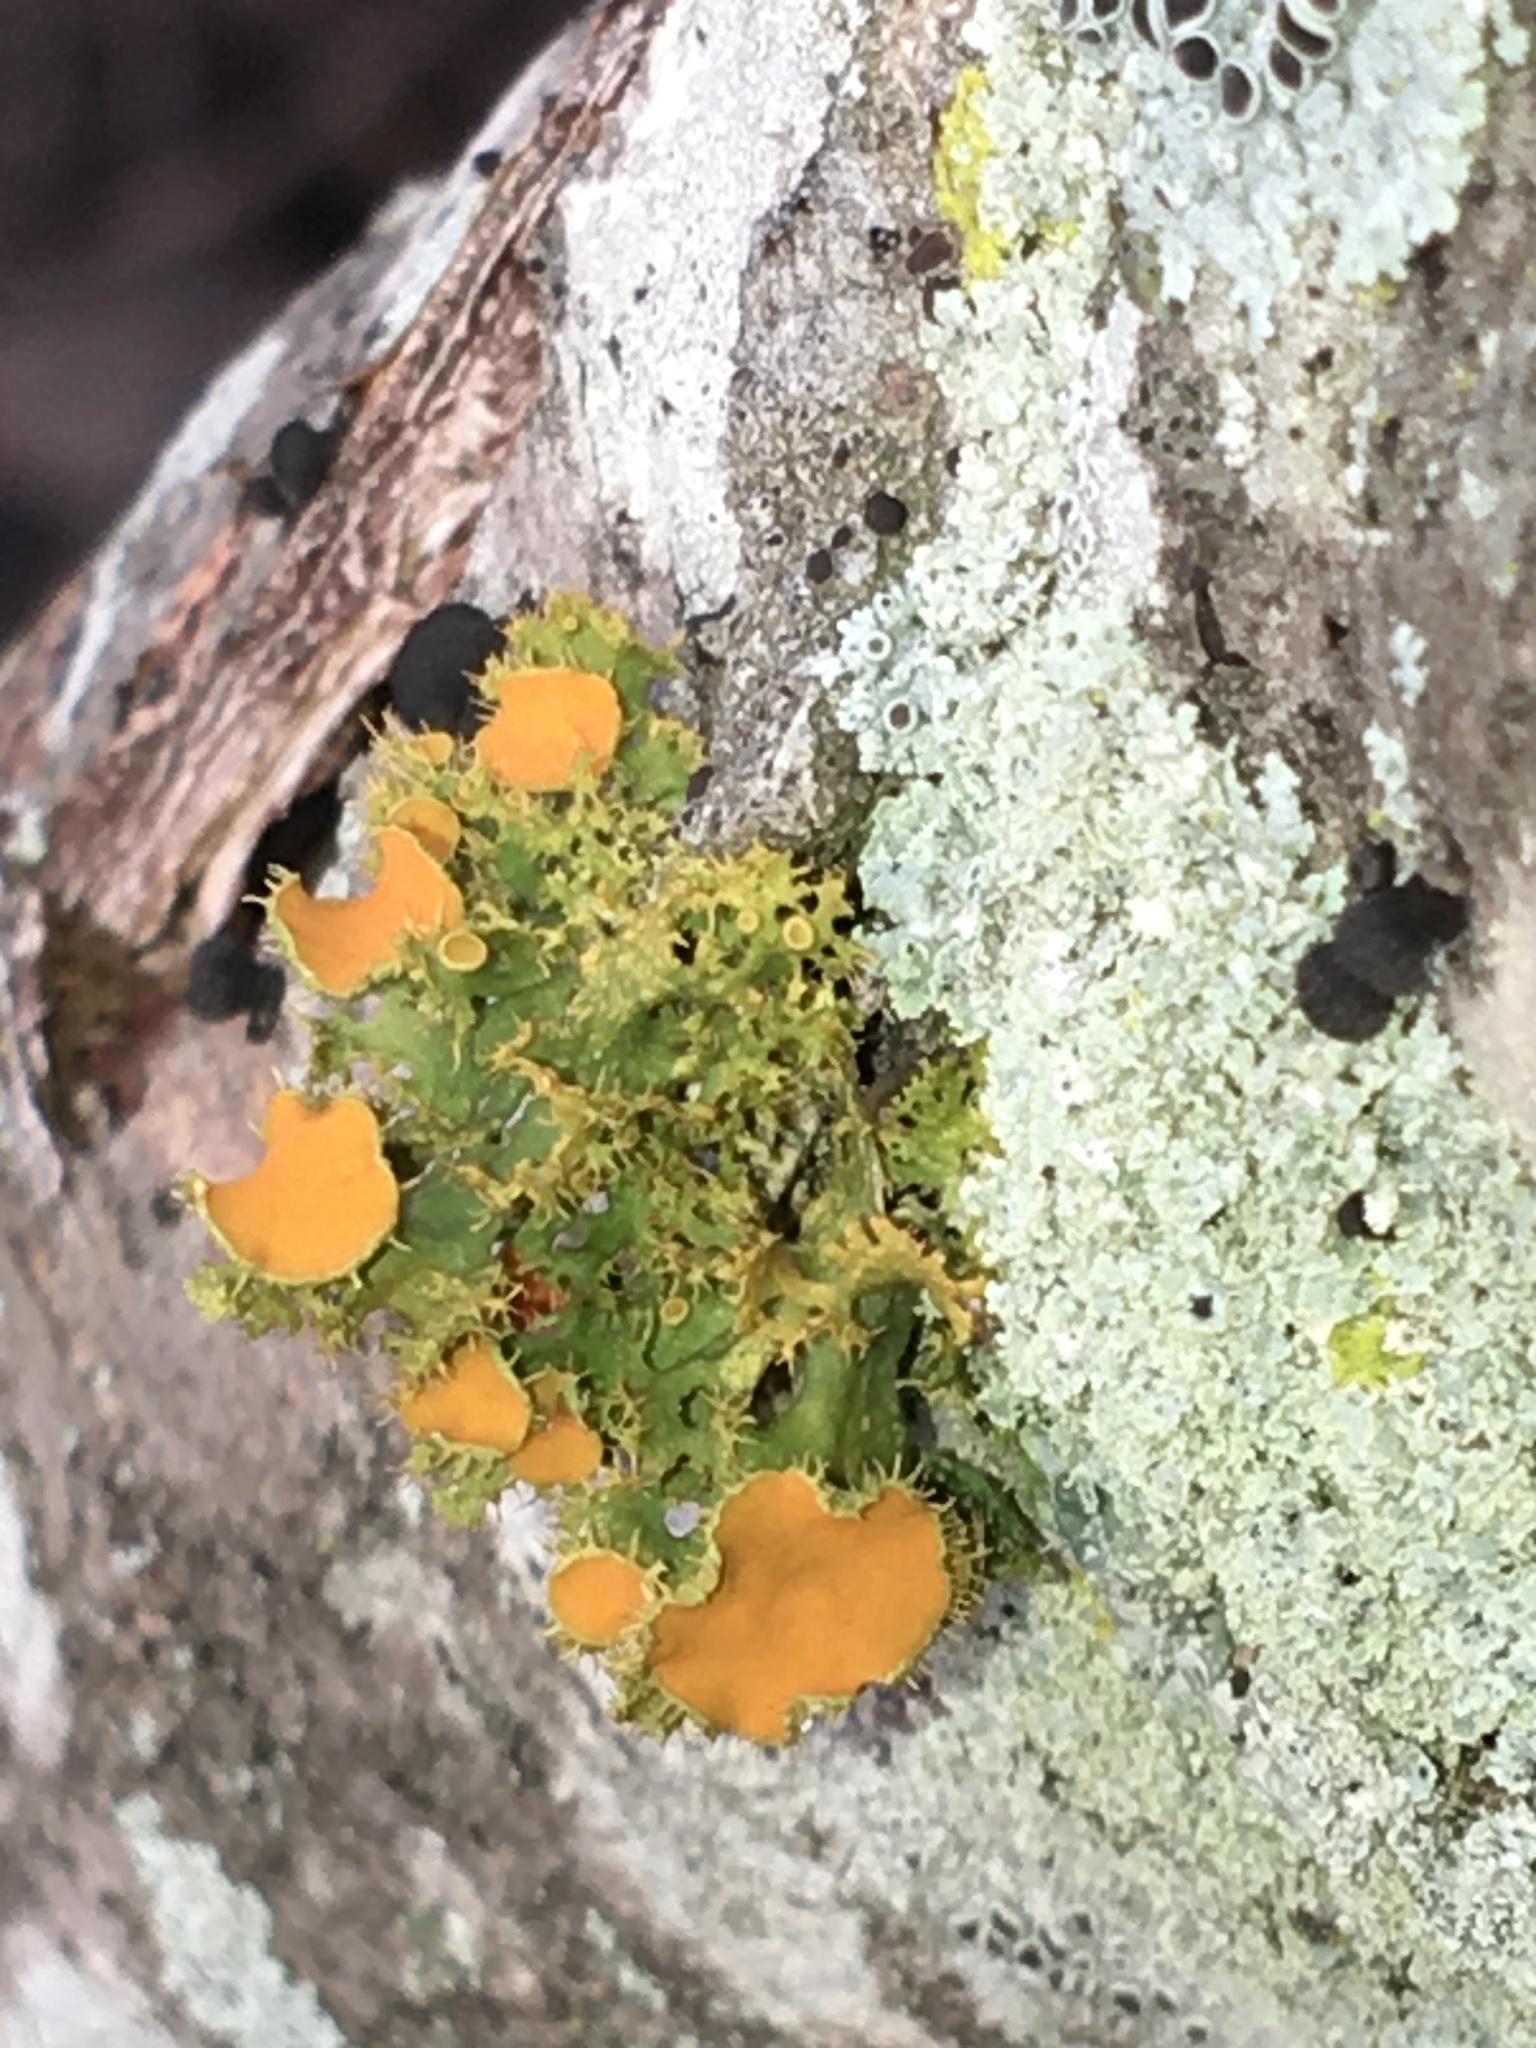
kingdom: Fungi
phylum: Ascomycota
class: Lecanoromycetes
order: Teloschistales
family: Teloschistaceae
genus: Niorma
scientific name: Niorma chrysophthalma
